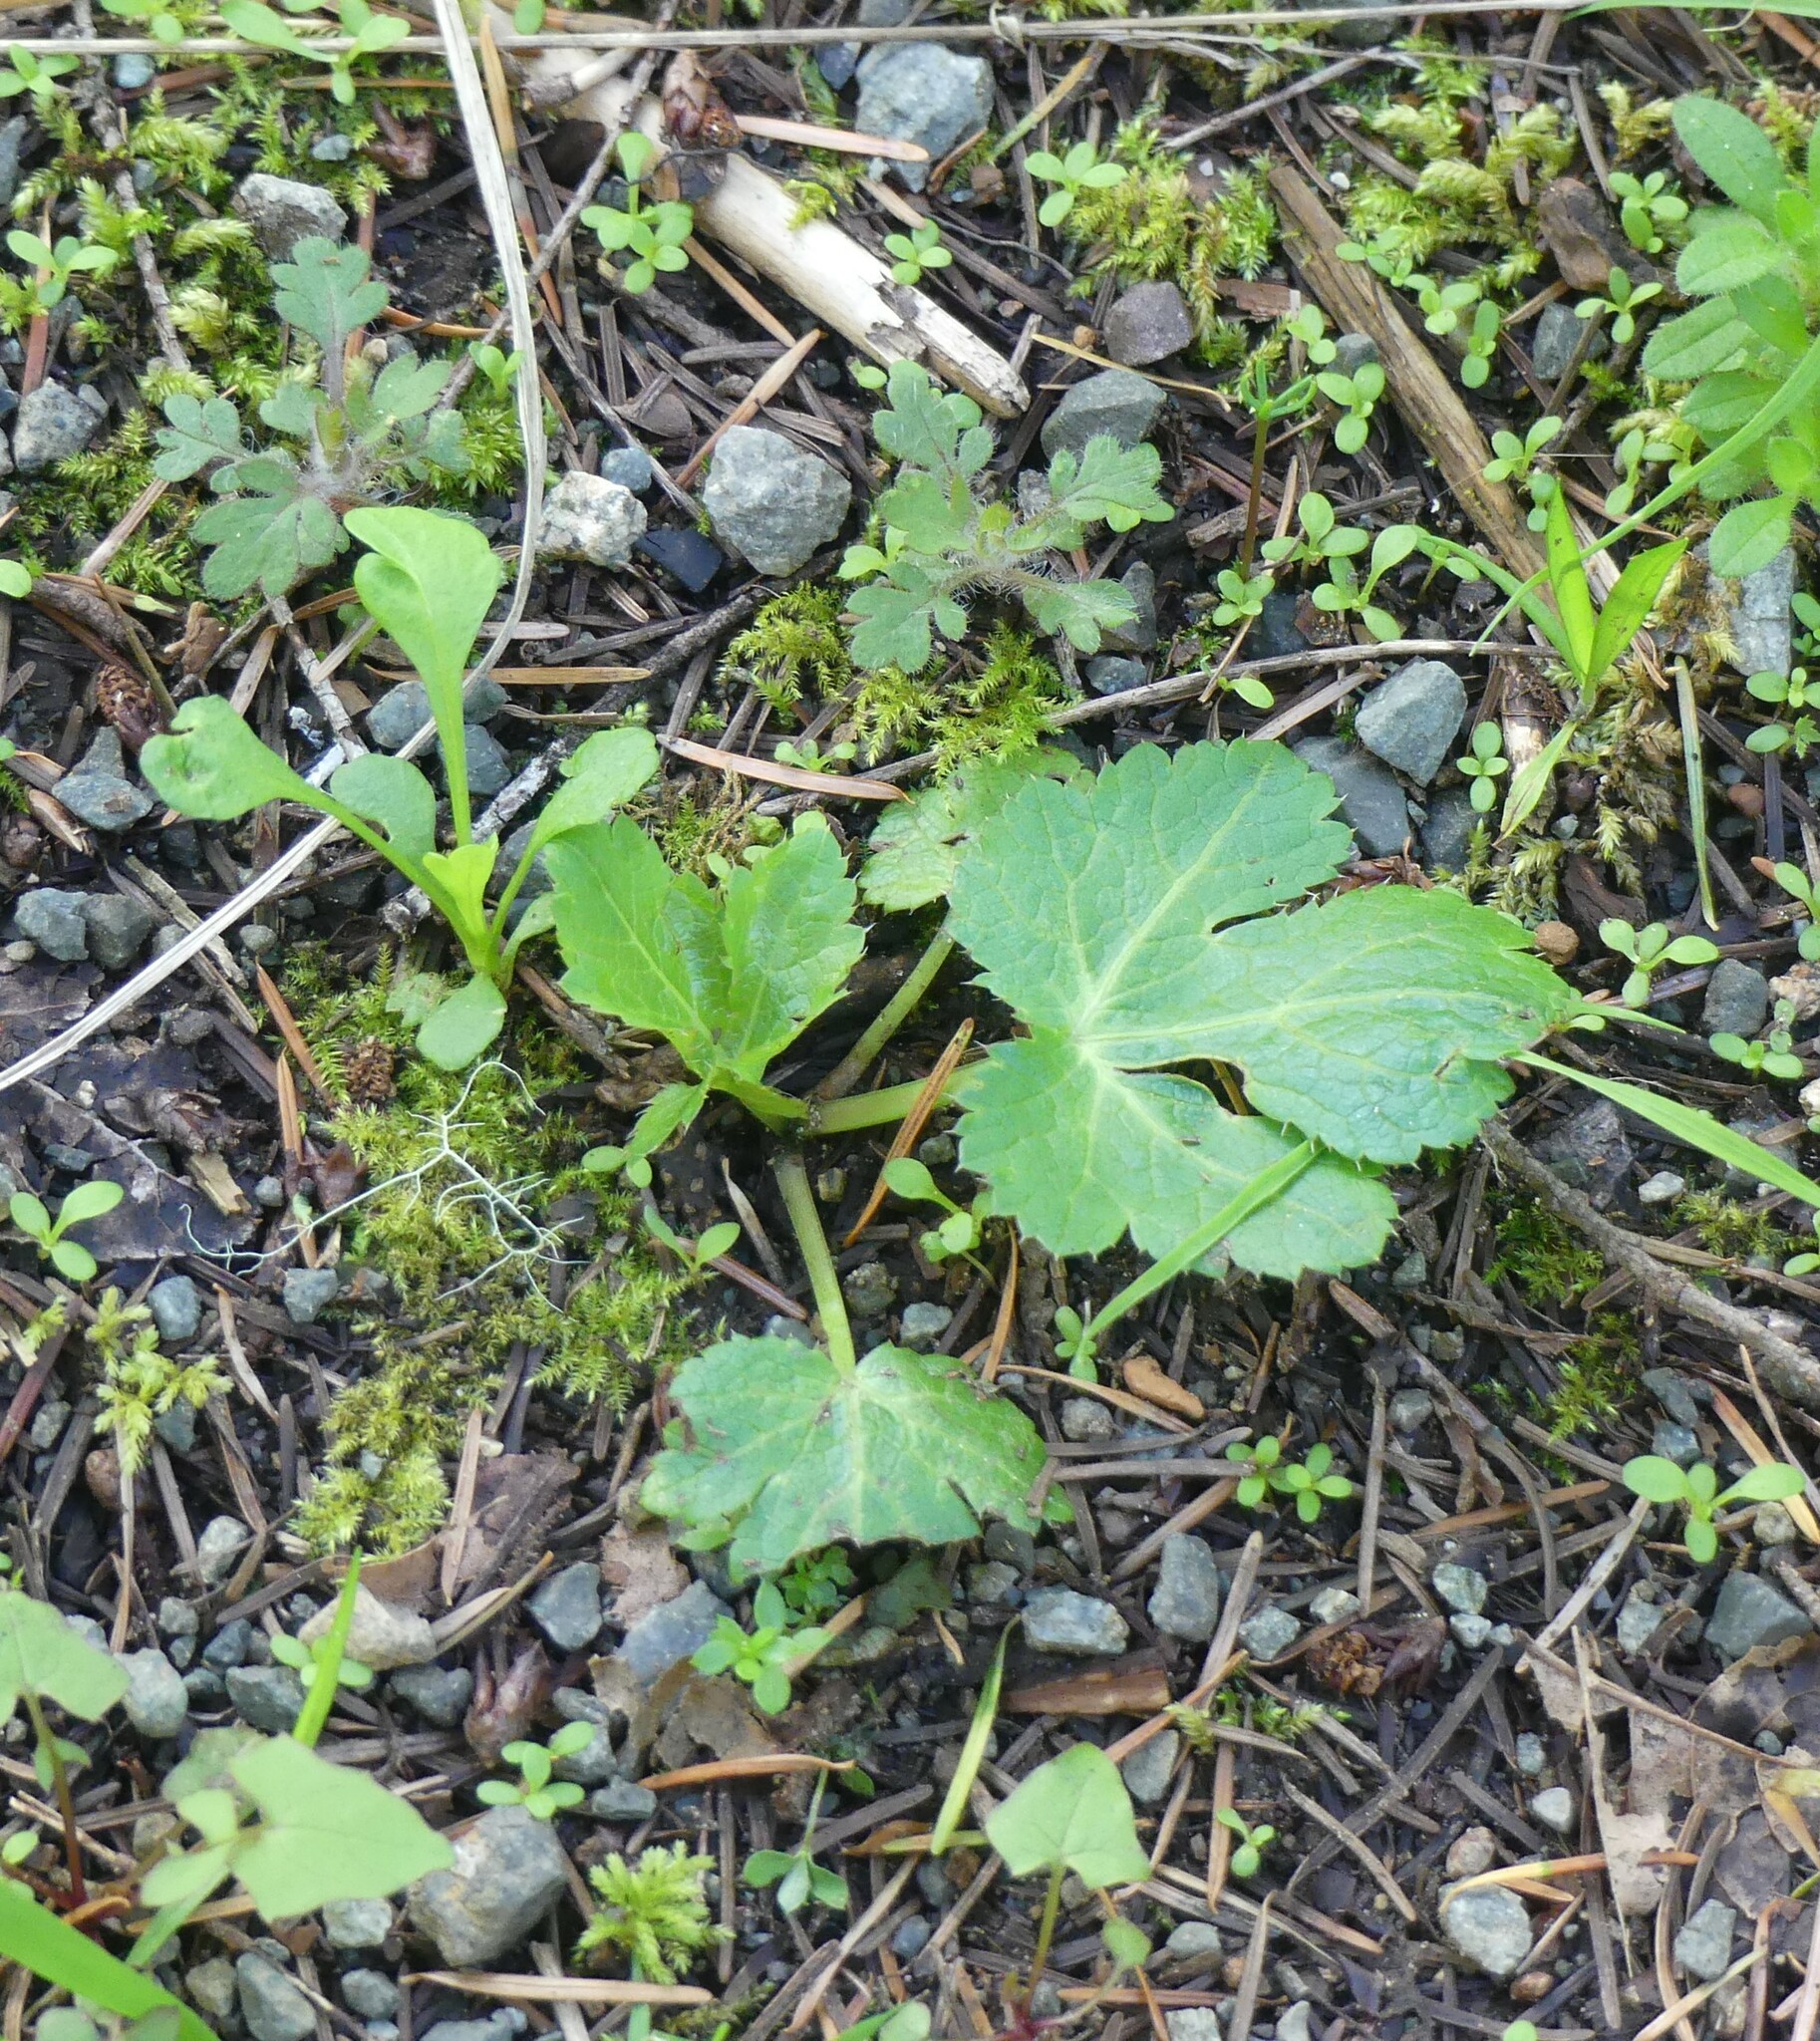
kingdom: Plantae
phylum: Tracheophyta
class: Magnoliopsida
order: Apiales
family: Apiaceae
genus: Sanicula
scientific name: Sanicula crassicaulis
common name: Western snakeroot
